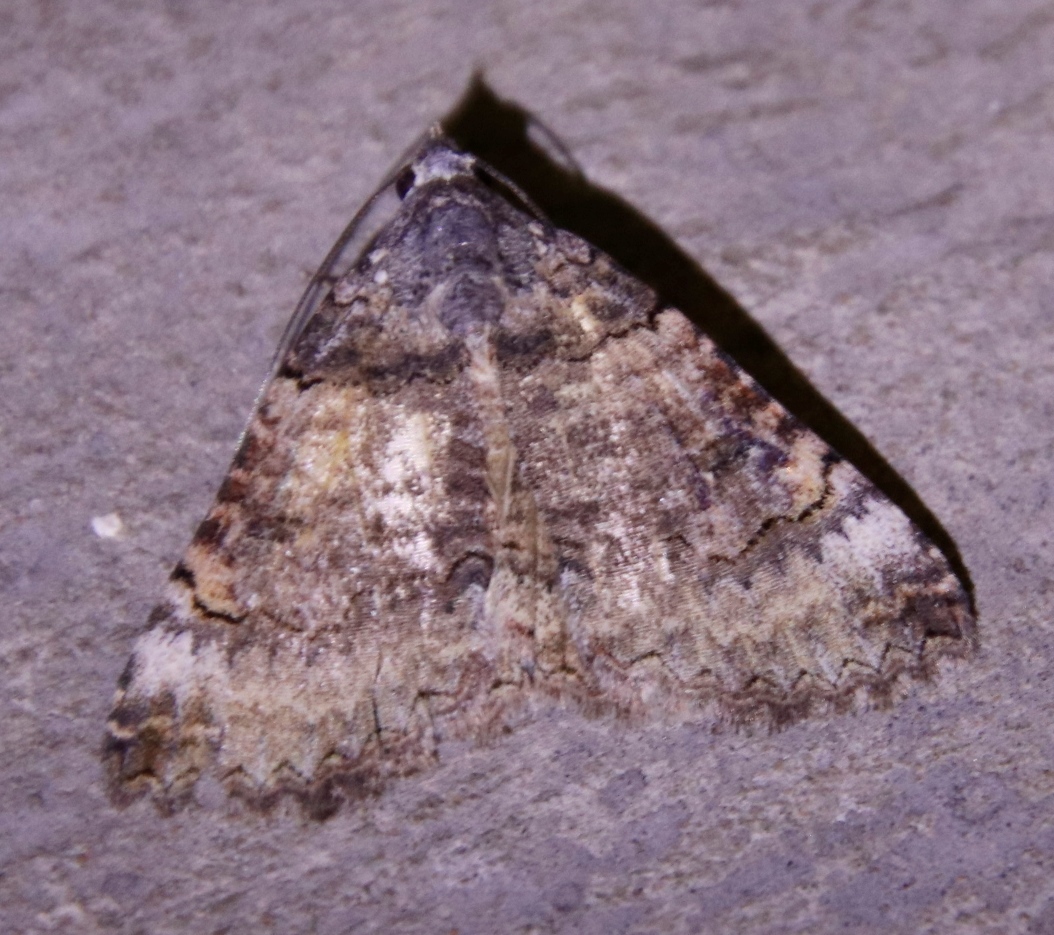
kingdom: Animalia
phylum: Arthropoda
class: Insecta
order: Lepidoptera
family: Erebidae
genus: Pericyma
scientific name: Pericyma atrifusa
